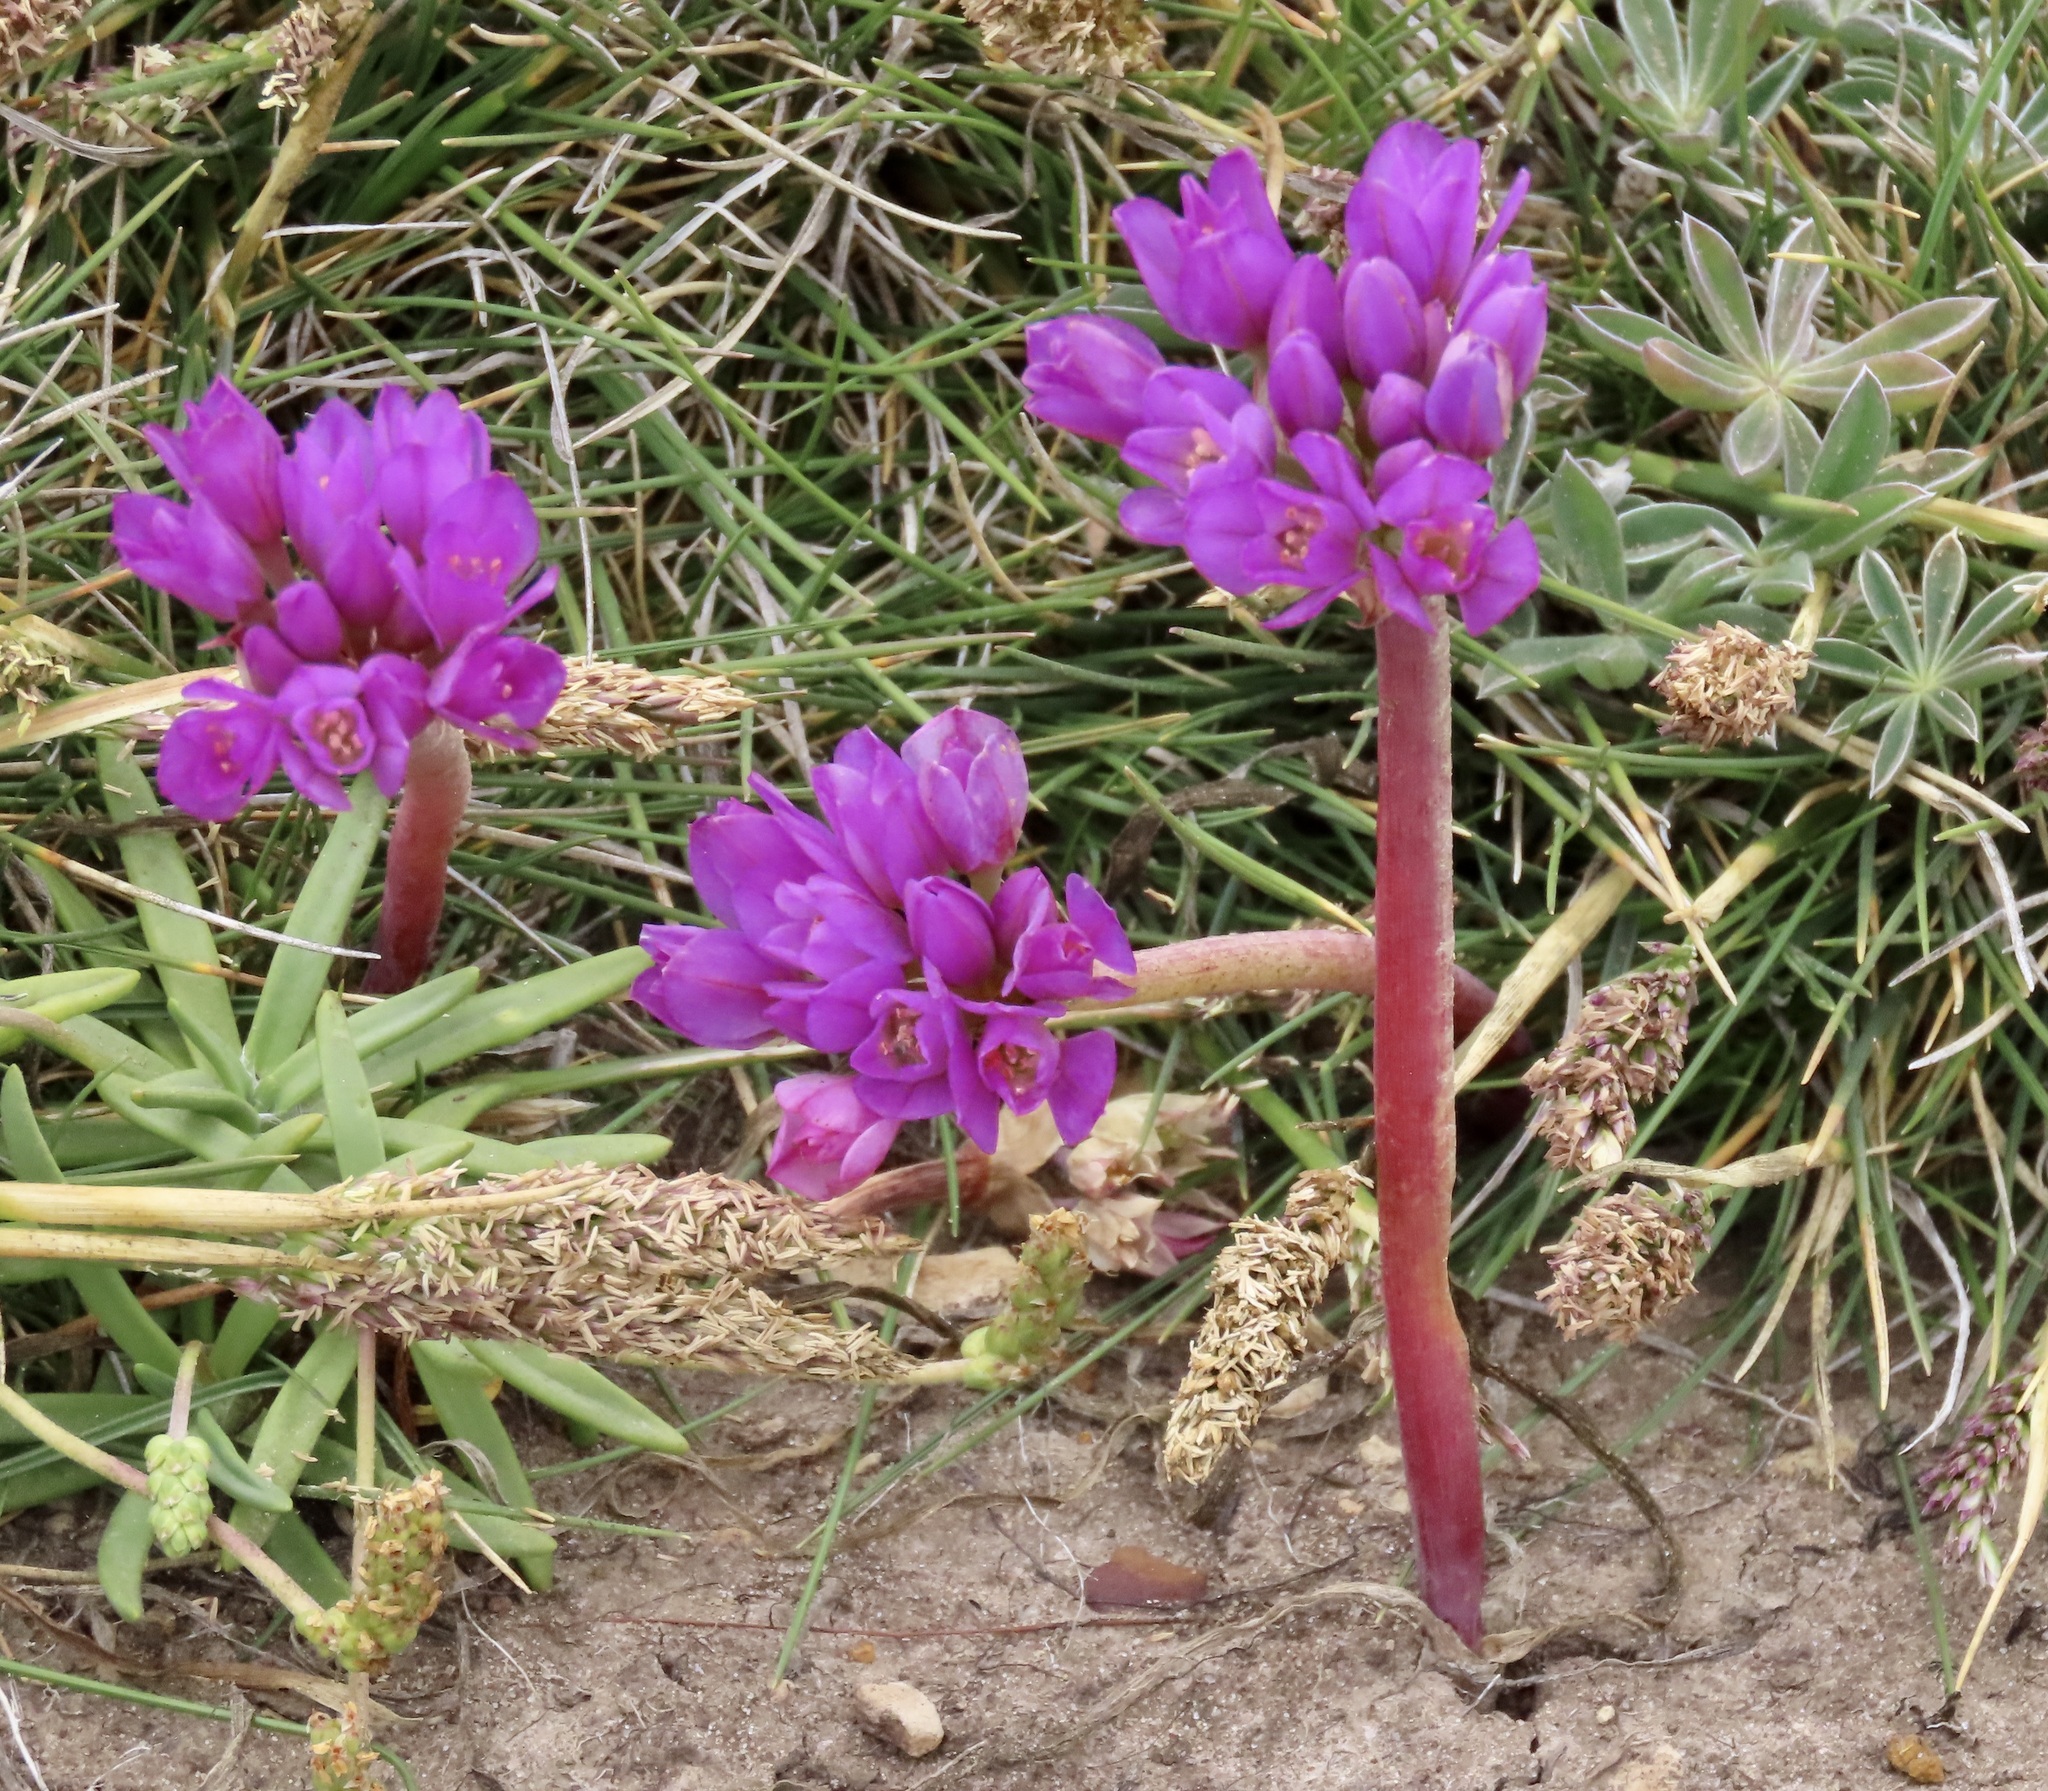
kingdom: Plantae
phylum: Tracheophyta
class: Liliopsida
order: Asparagales
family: Amaryllidaceae
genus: Allium
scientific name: Allium dichlamydeum
